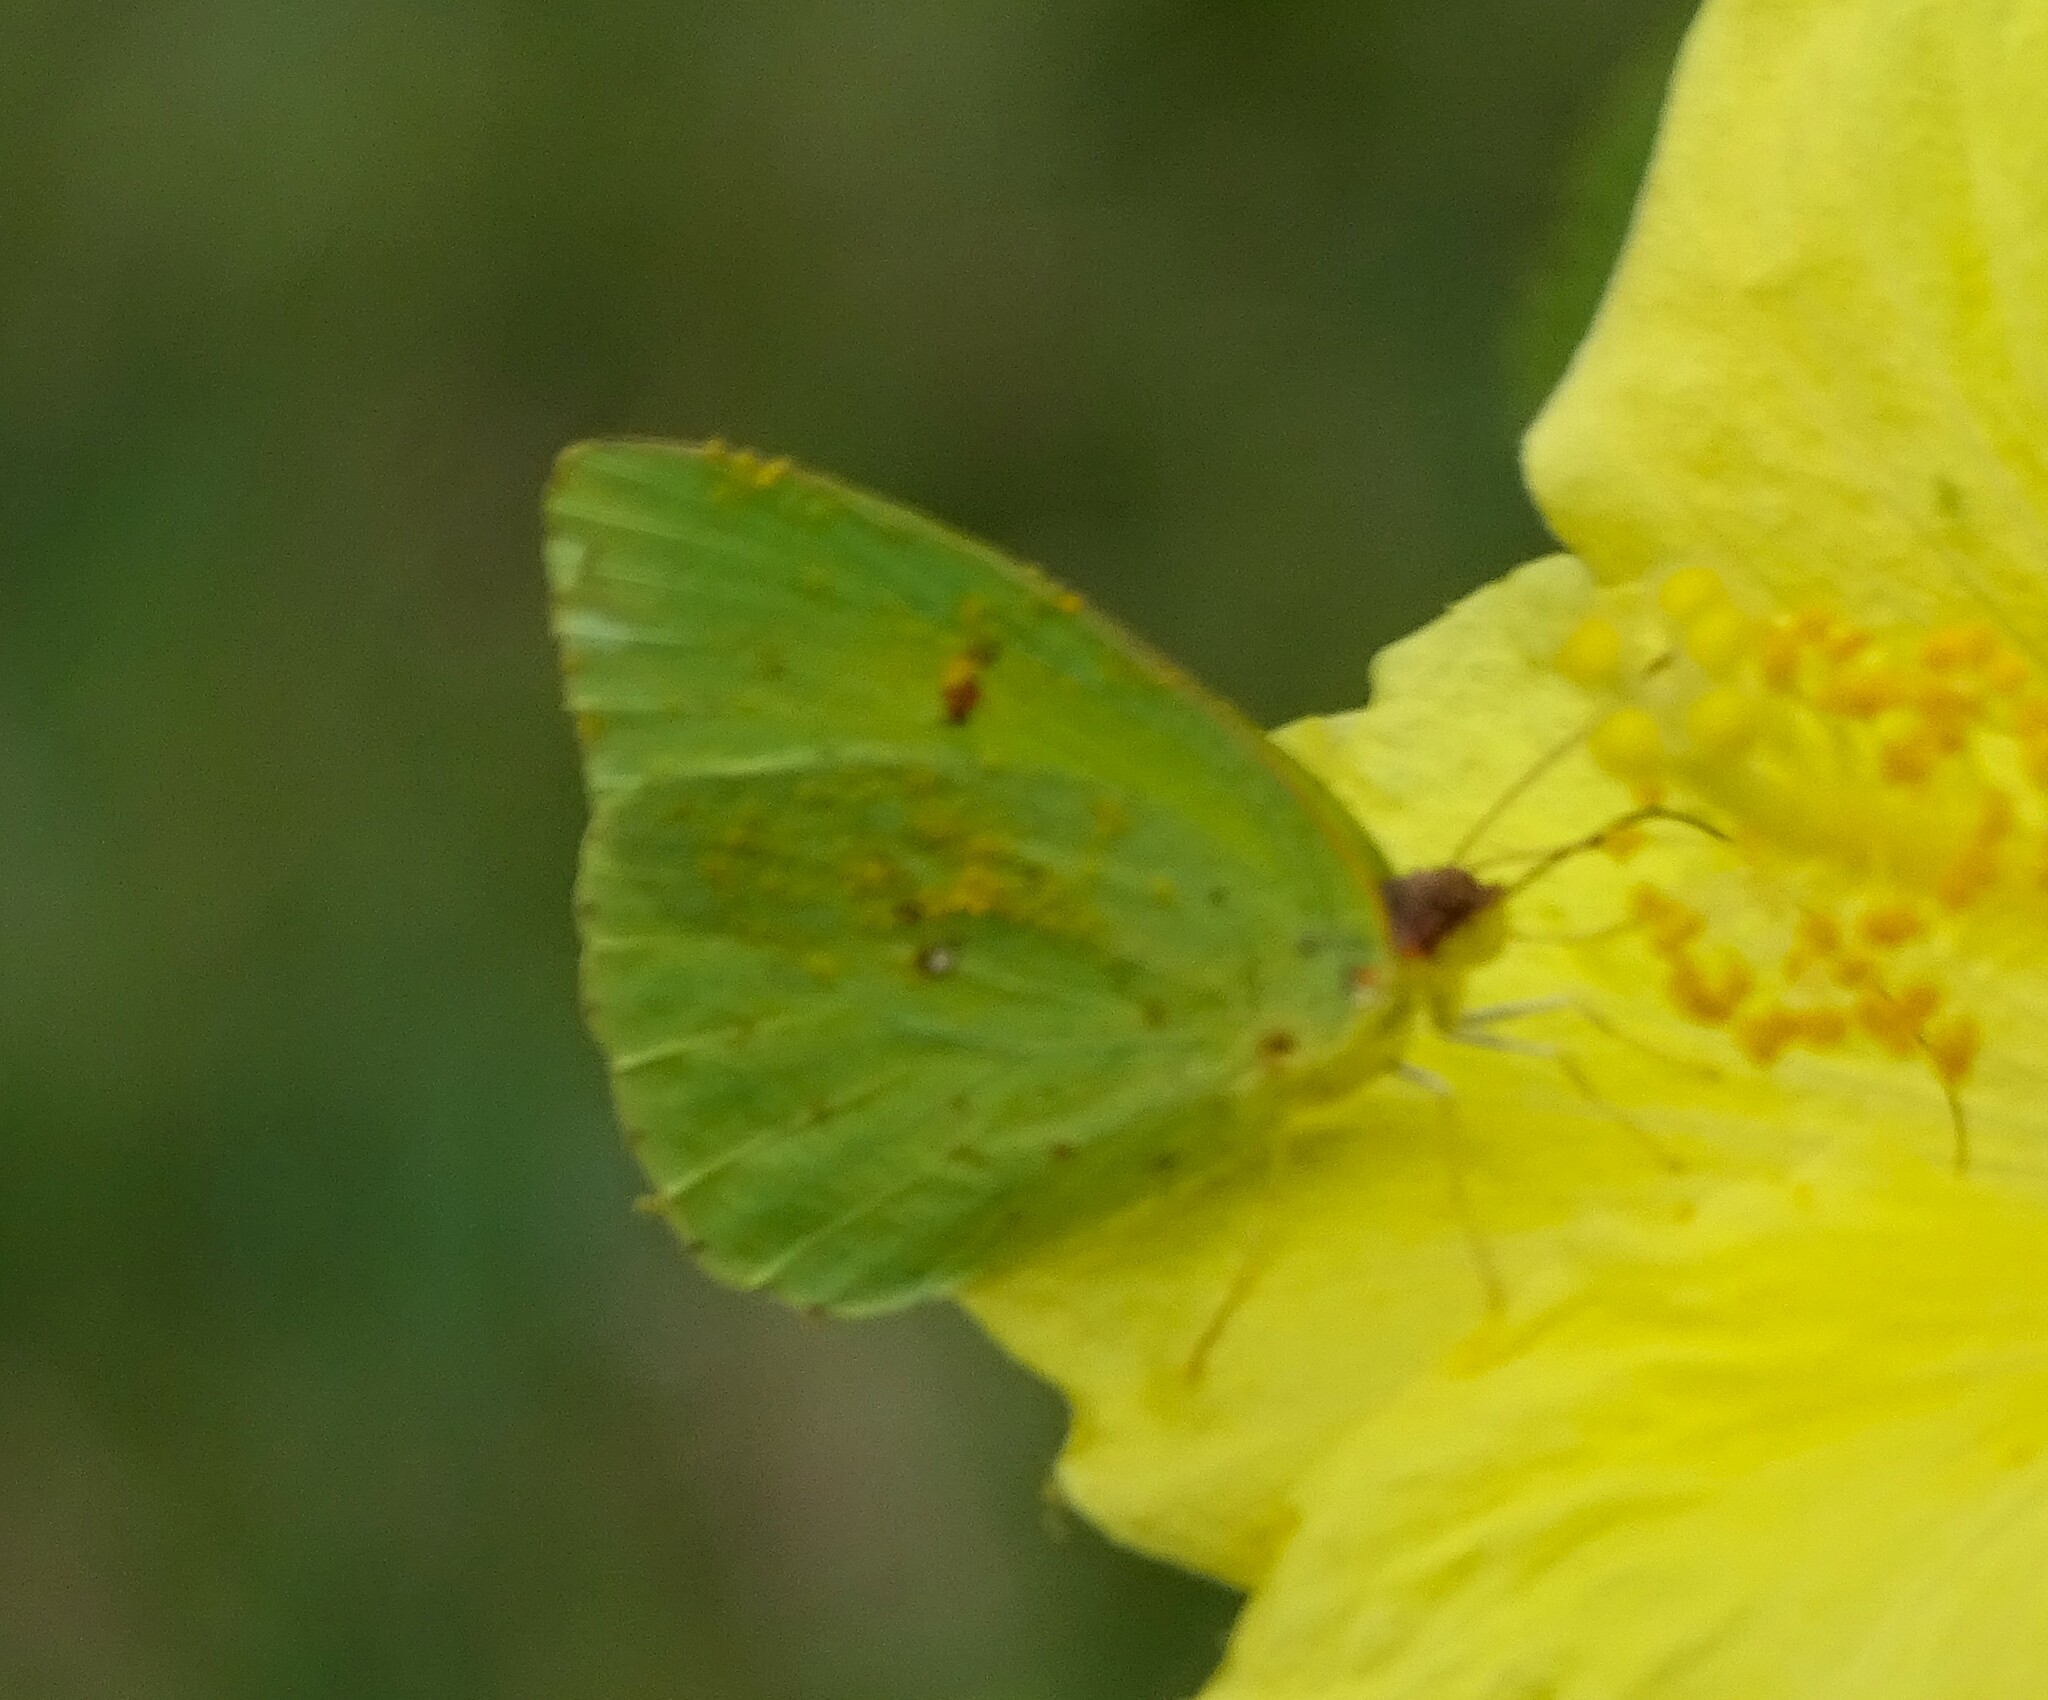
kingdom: Animalia
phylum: Arthropoda
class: Insecta
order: Lepidoptera
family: Pieridae
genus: Phoebis
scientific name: Phoebis sennae
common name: Cloudless sulphur
